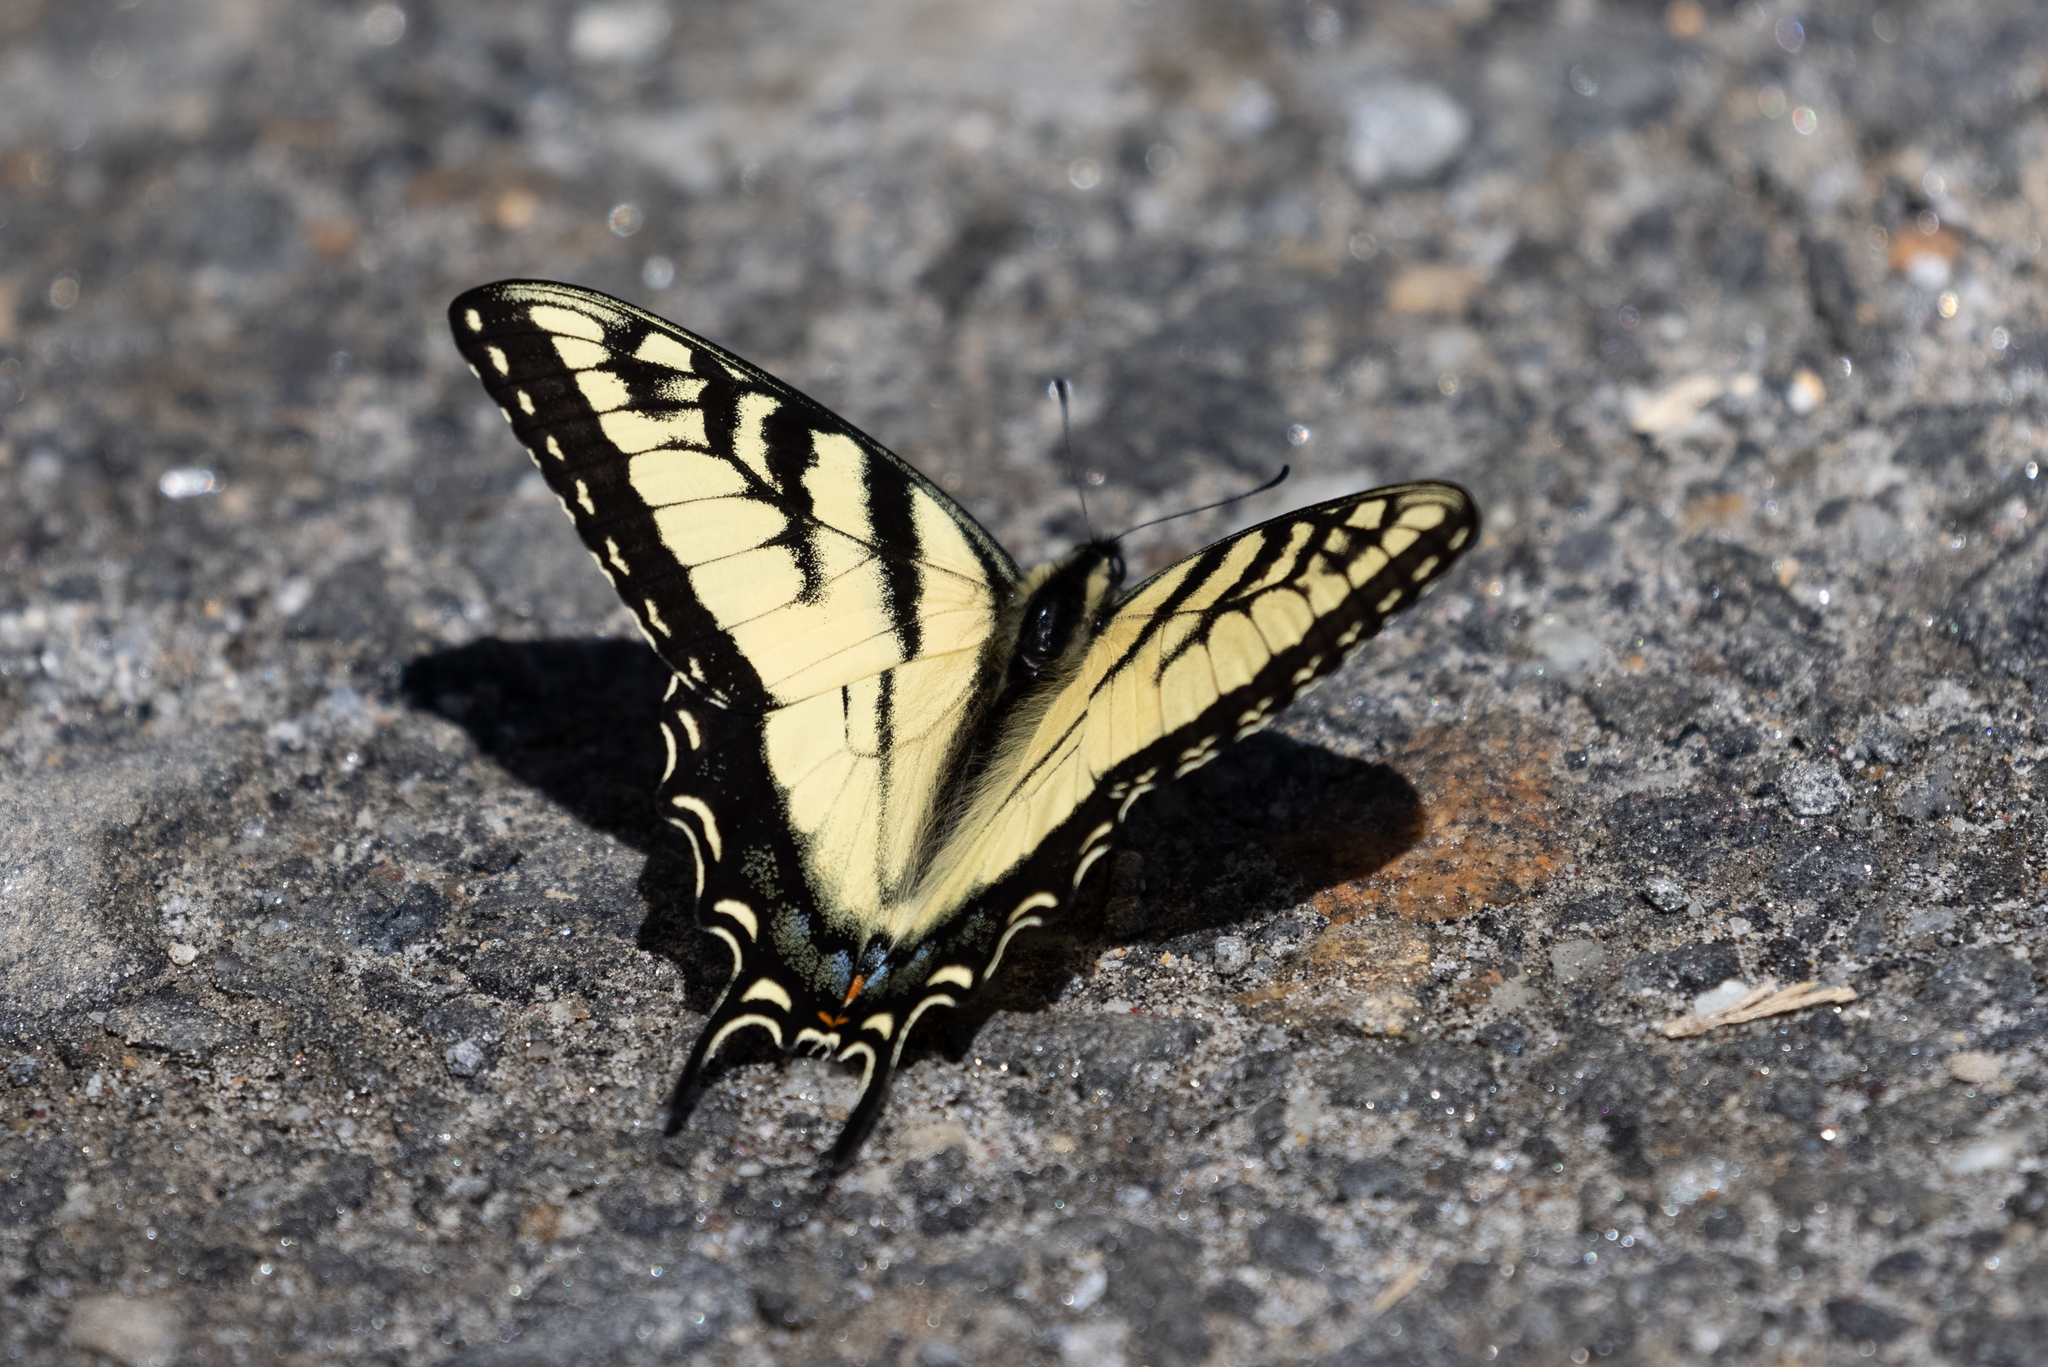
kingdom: Animalia
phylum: Arthropoda
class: Insecta
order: Lepidoptera
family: Papilionidae
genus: Papilio
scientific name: Papilio glaucus
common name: Tiger swallowtail
